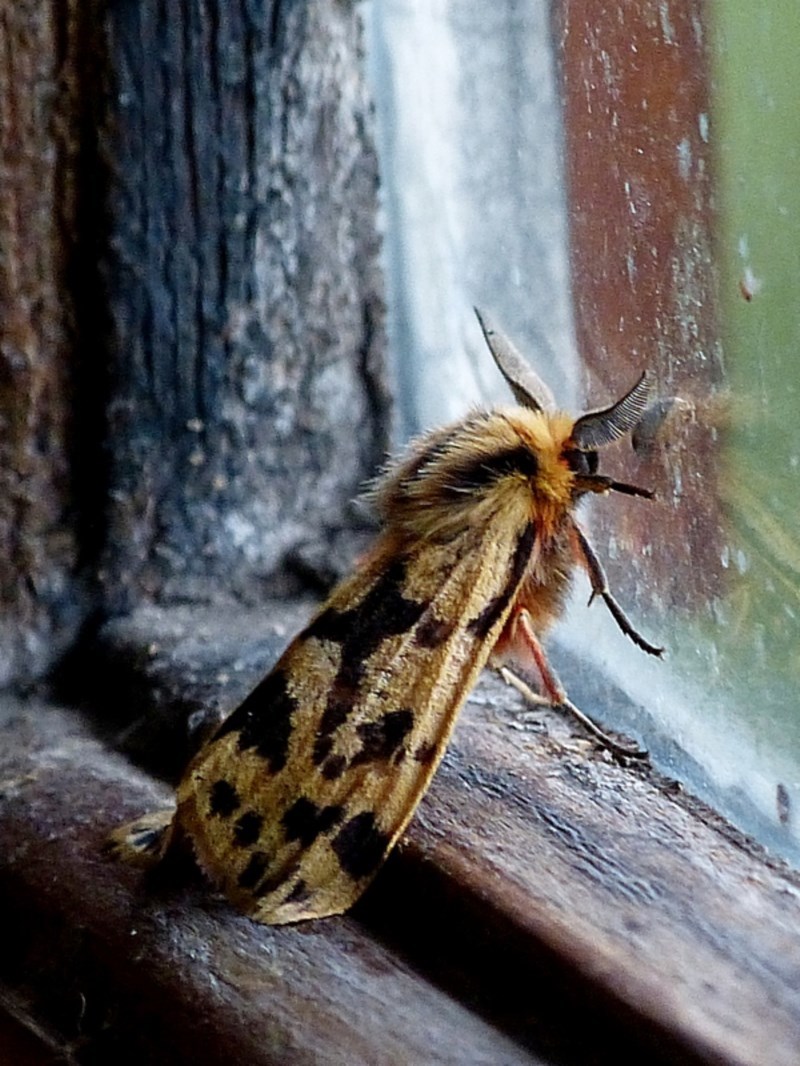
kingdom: Animalia
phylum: Arthropoda
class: Insecta
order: Lepidoptera
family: Erebidae
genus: Ardices
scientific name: Ardices curvata
